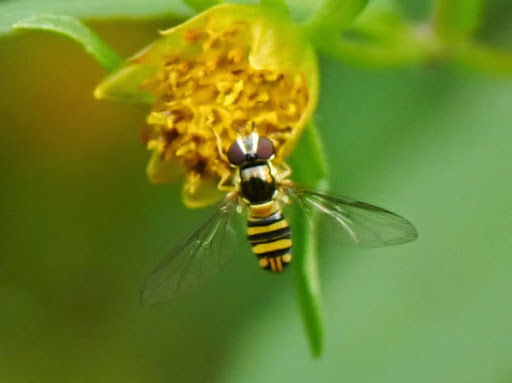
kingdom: Animalia
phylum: Arthropoda
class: Insecta
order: Diptera
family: Syrphidae
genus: Allograpta
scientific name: Allograpta obliqua
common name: Common oblique syrphid
